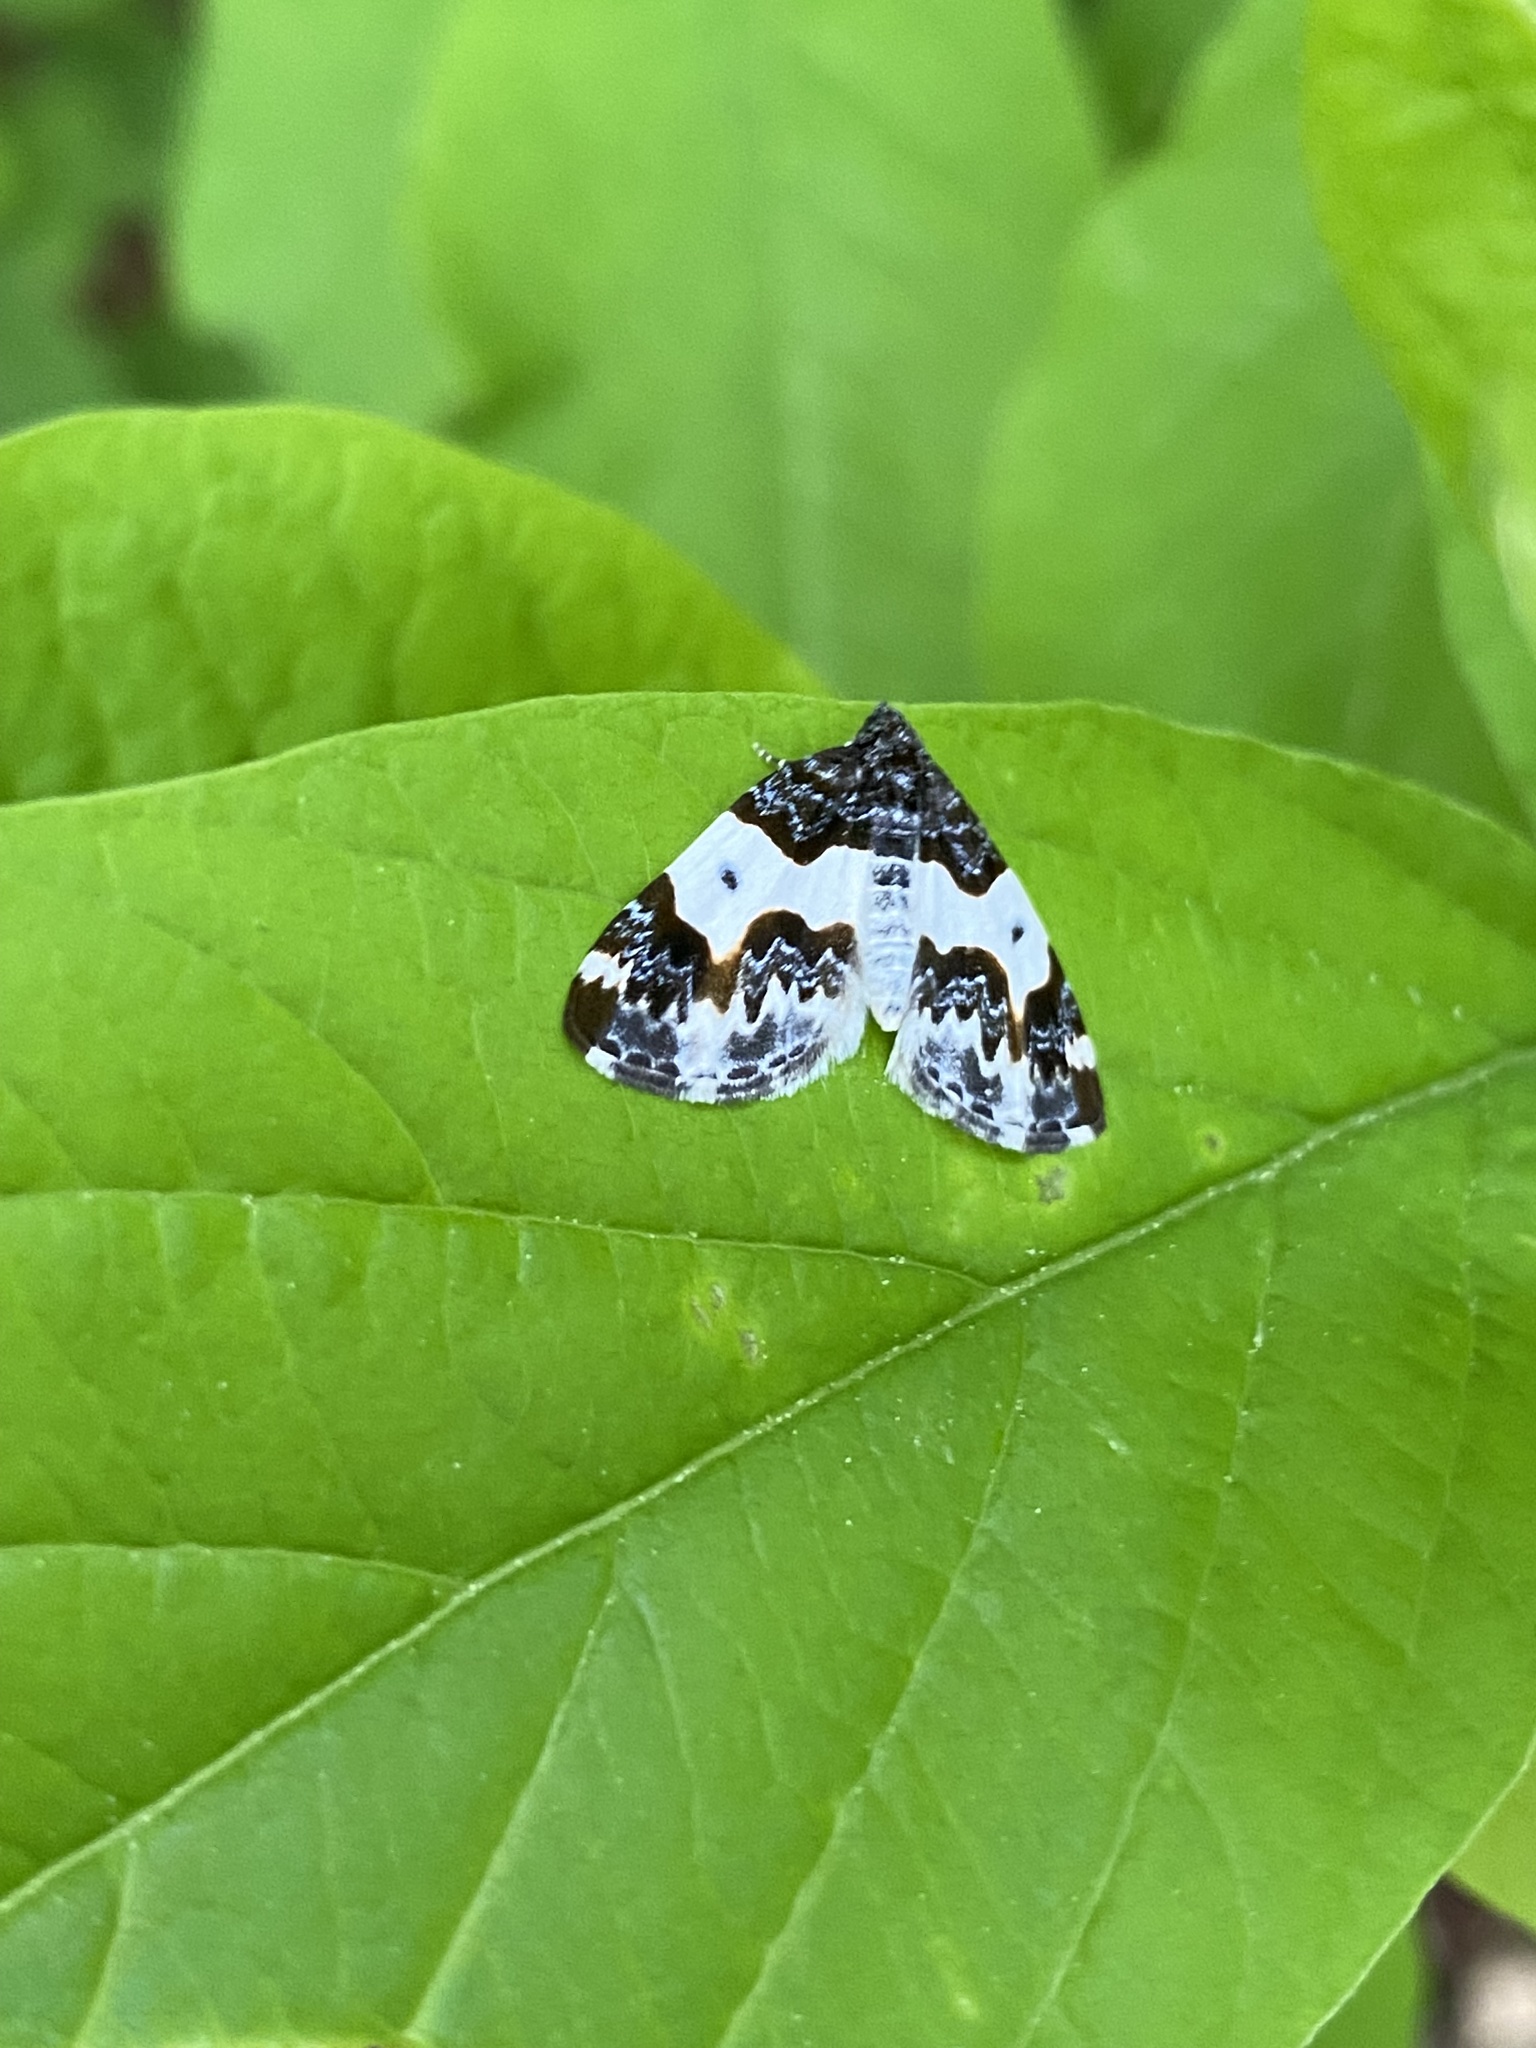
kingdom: Animalia
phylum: Arthropoda
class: Insecta
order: Lepidoptera
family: Geometridae
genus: Mesoleuca
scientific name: Mesoleuca gratulata
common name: Half-white carpet moth
